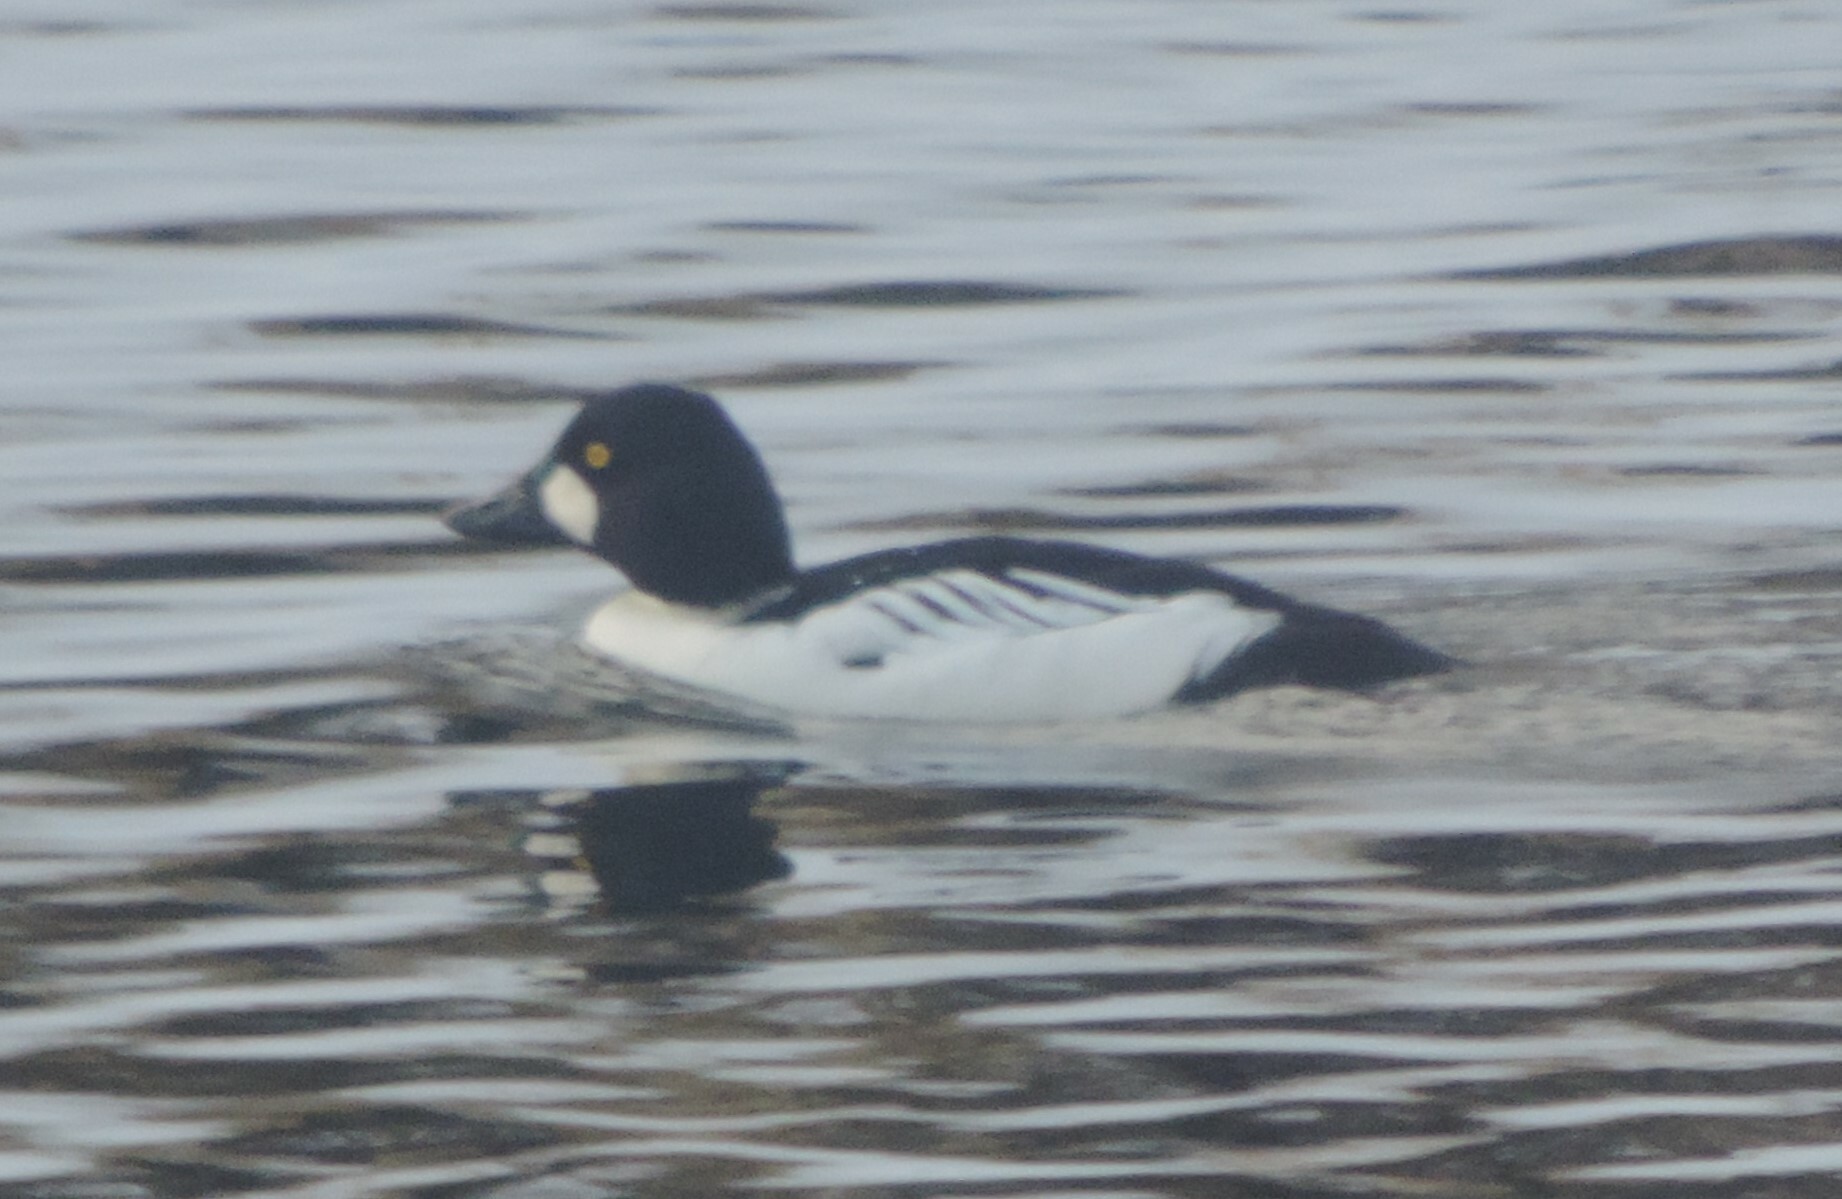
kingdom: Animalia
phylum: Chordata
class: Aves
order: Anseriformes
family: Anatidae
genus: Bucephala
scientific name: Bucephala clangula
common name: Common goldeneye
